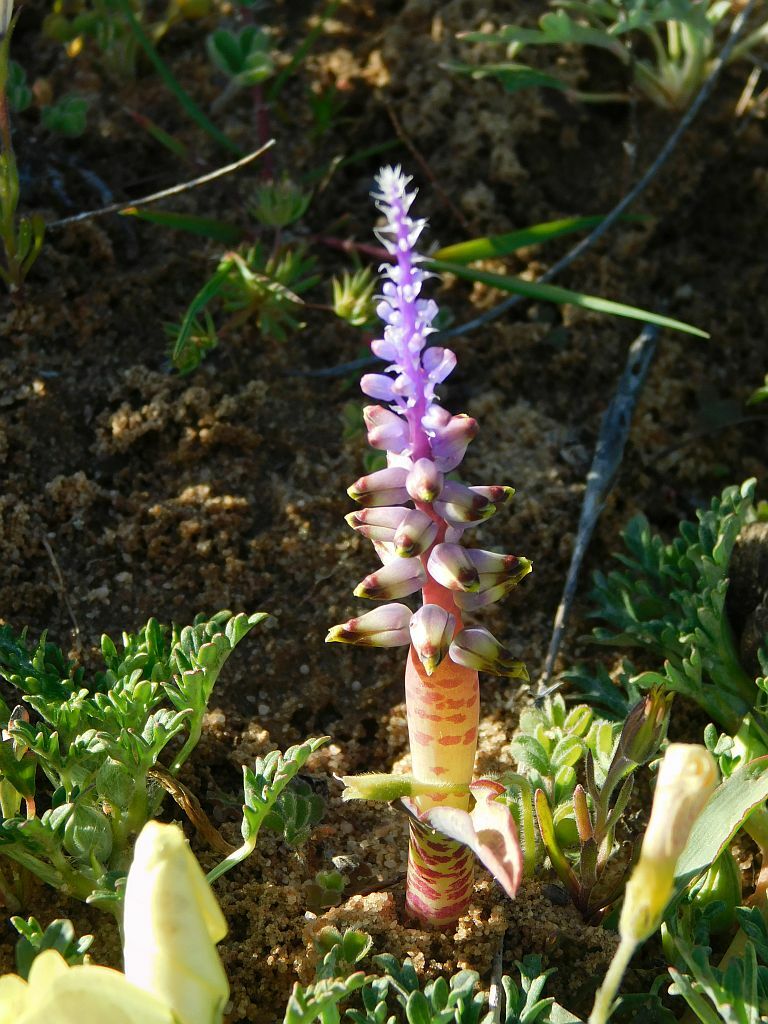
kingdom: Plantae
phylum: Tracheophyta
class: Liliopsida
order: Asparagales
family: Asparagaceae
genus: Lachenalia
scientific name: Lachenalia mutabilis
